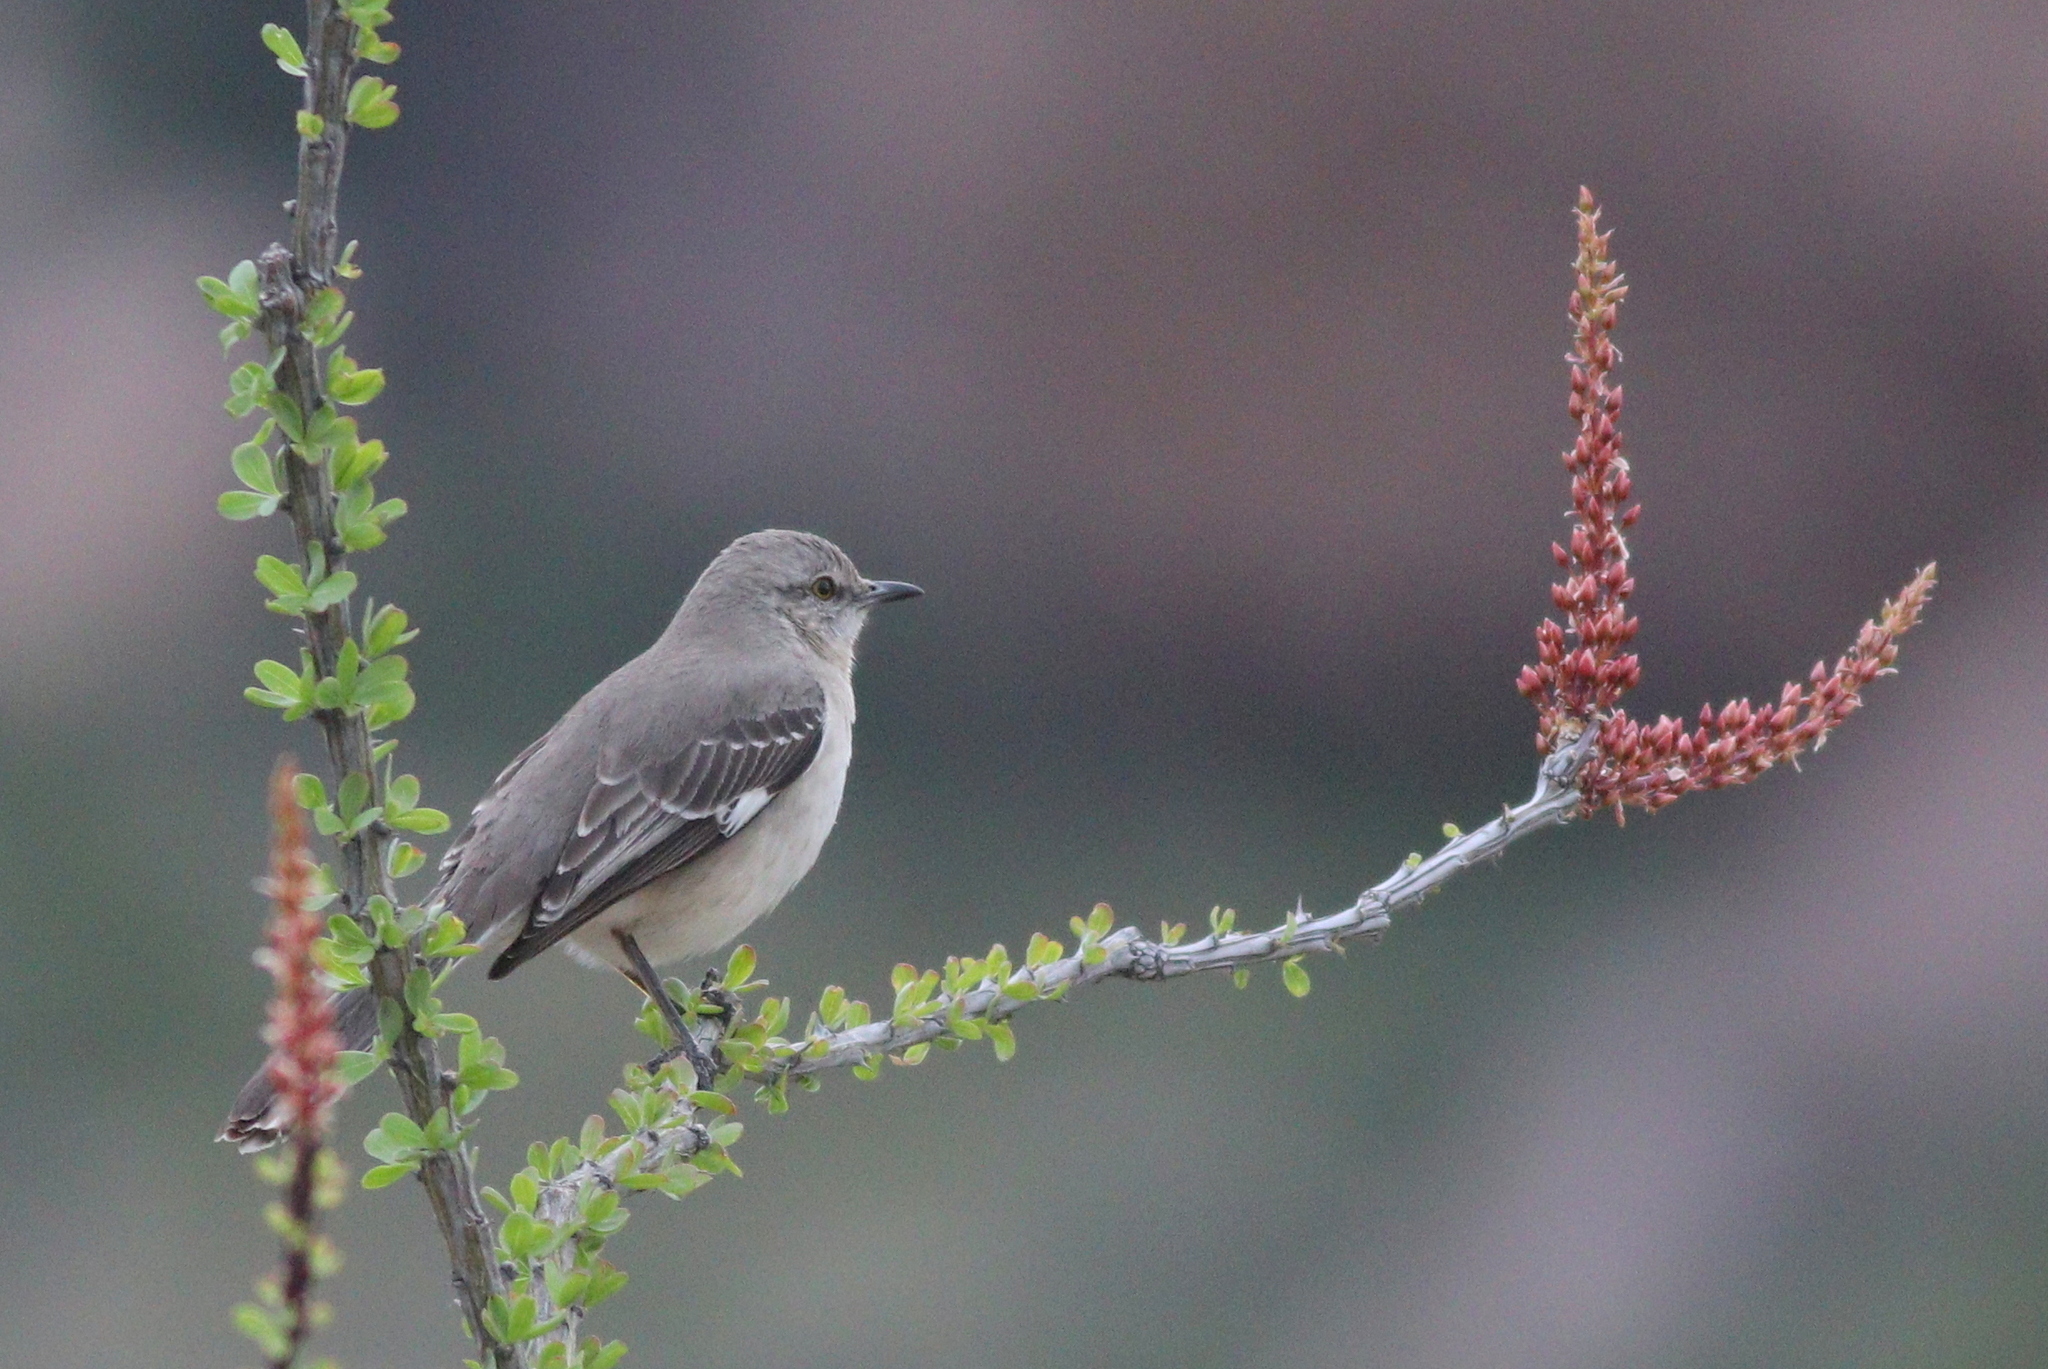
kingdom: Animalia
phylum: Chordata
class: Aves
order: Passeriformes
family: Mimidae
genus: Mimus
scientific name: Mimus polyglottos
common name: Northern mockingbird
